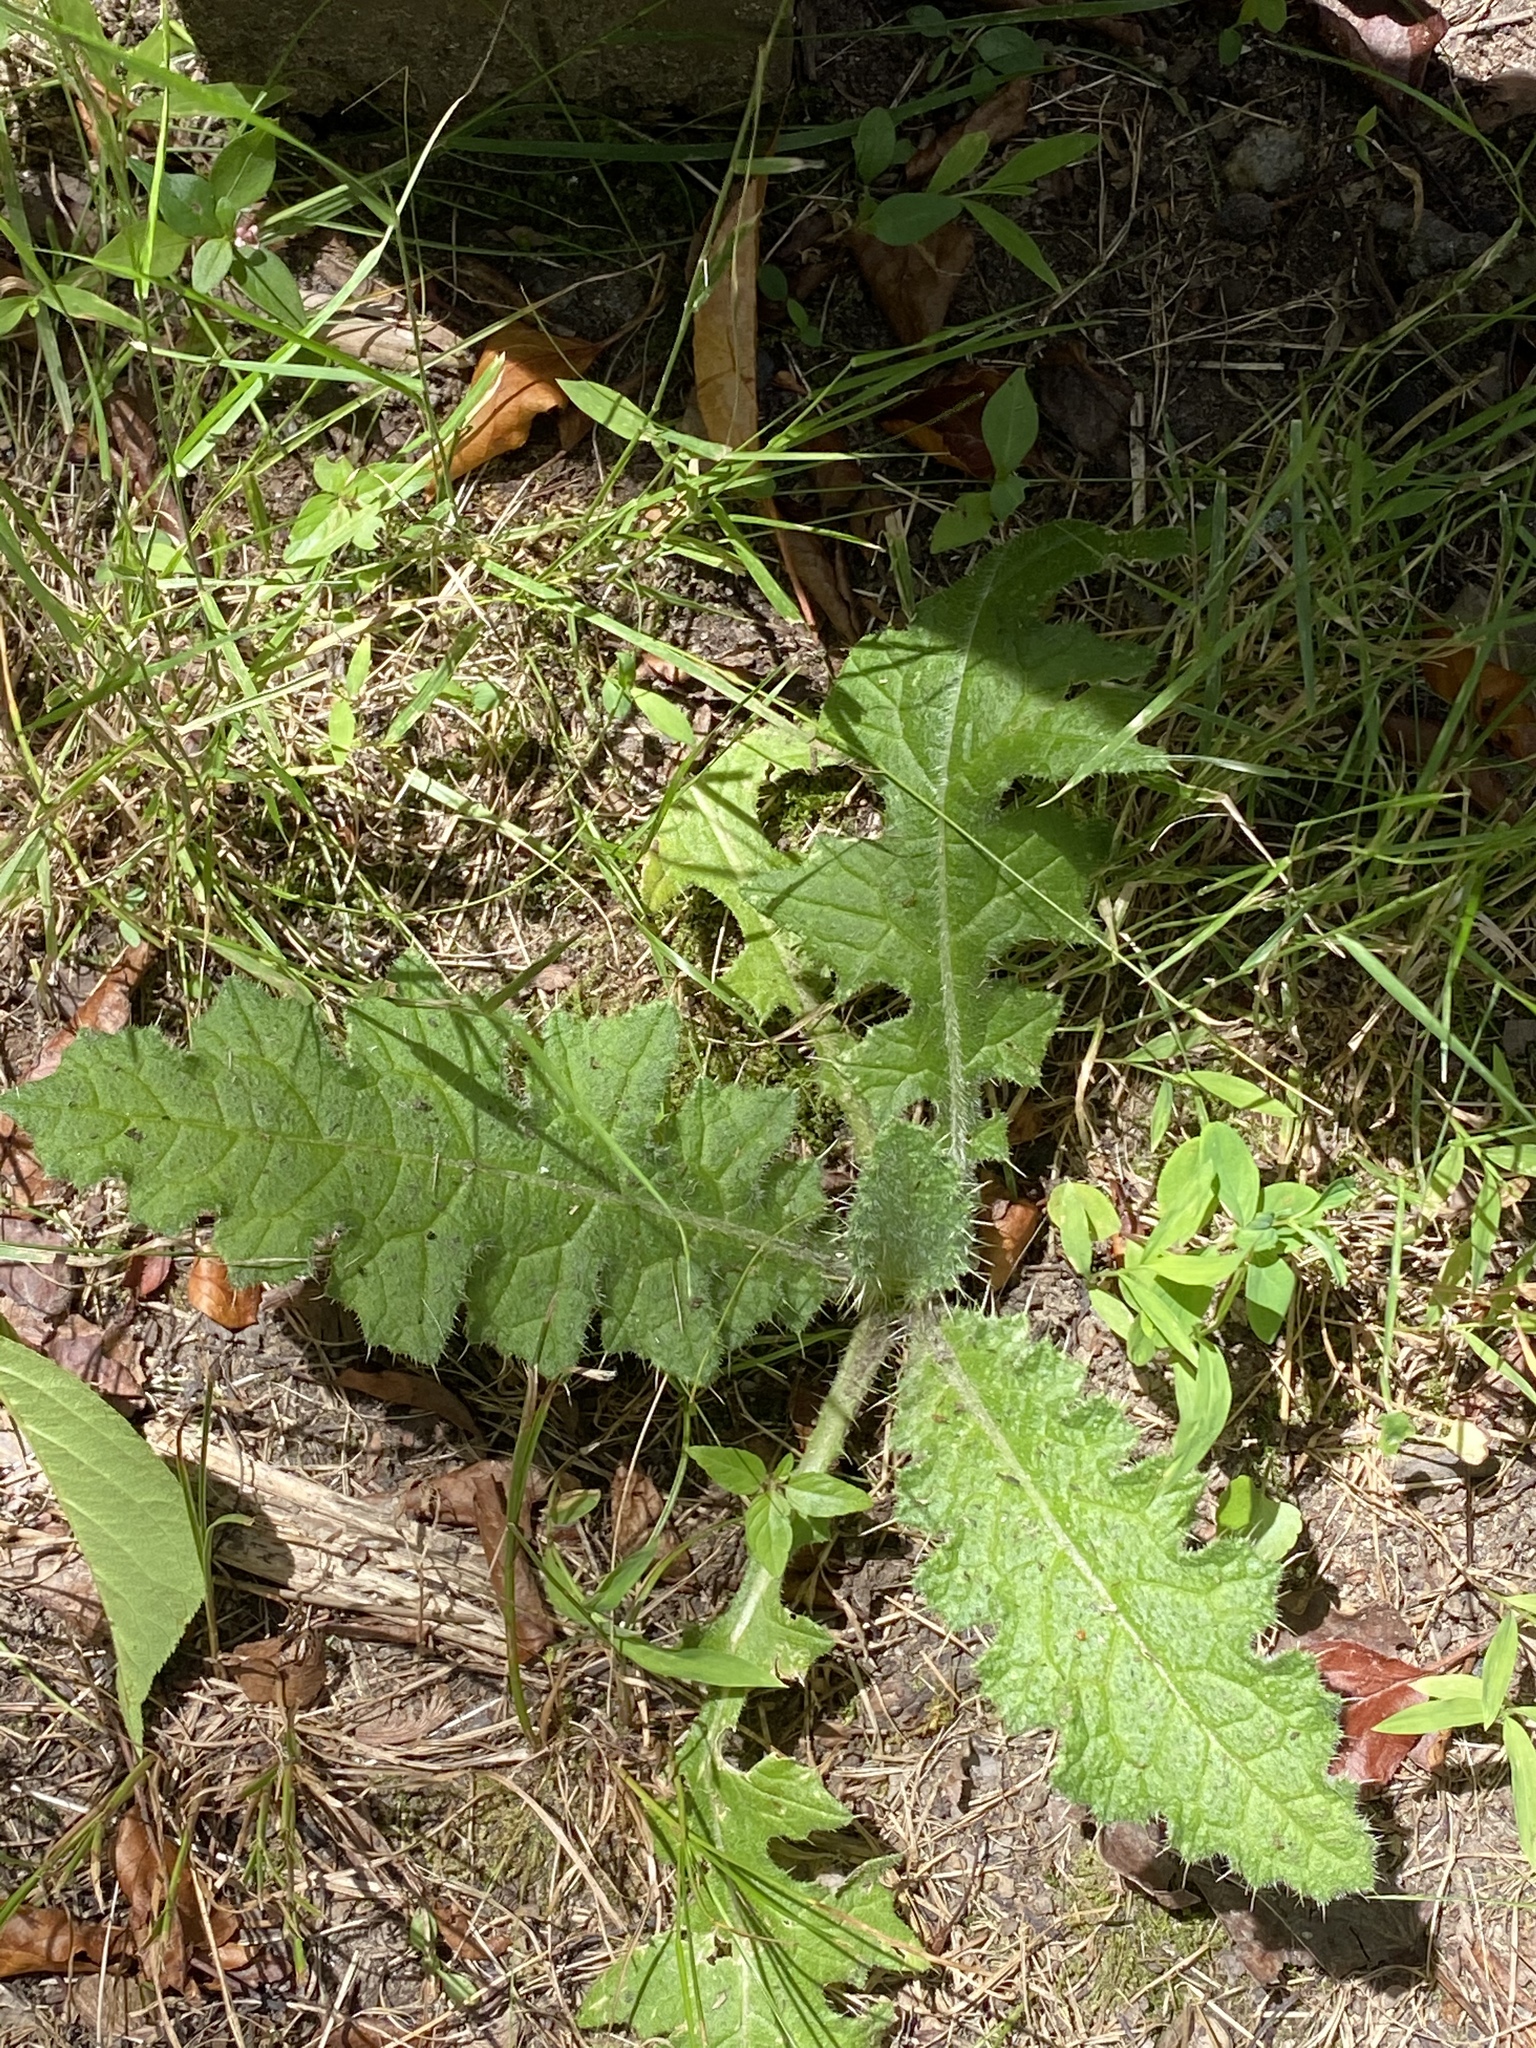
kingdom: Plantae
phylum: Tracheophyta
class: Magnoliopsida
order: Asterales
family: Asteraceae
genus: Cirsium
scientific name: Cirsium vulgare
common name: Bull thistle
